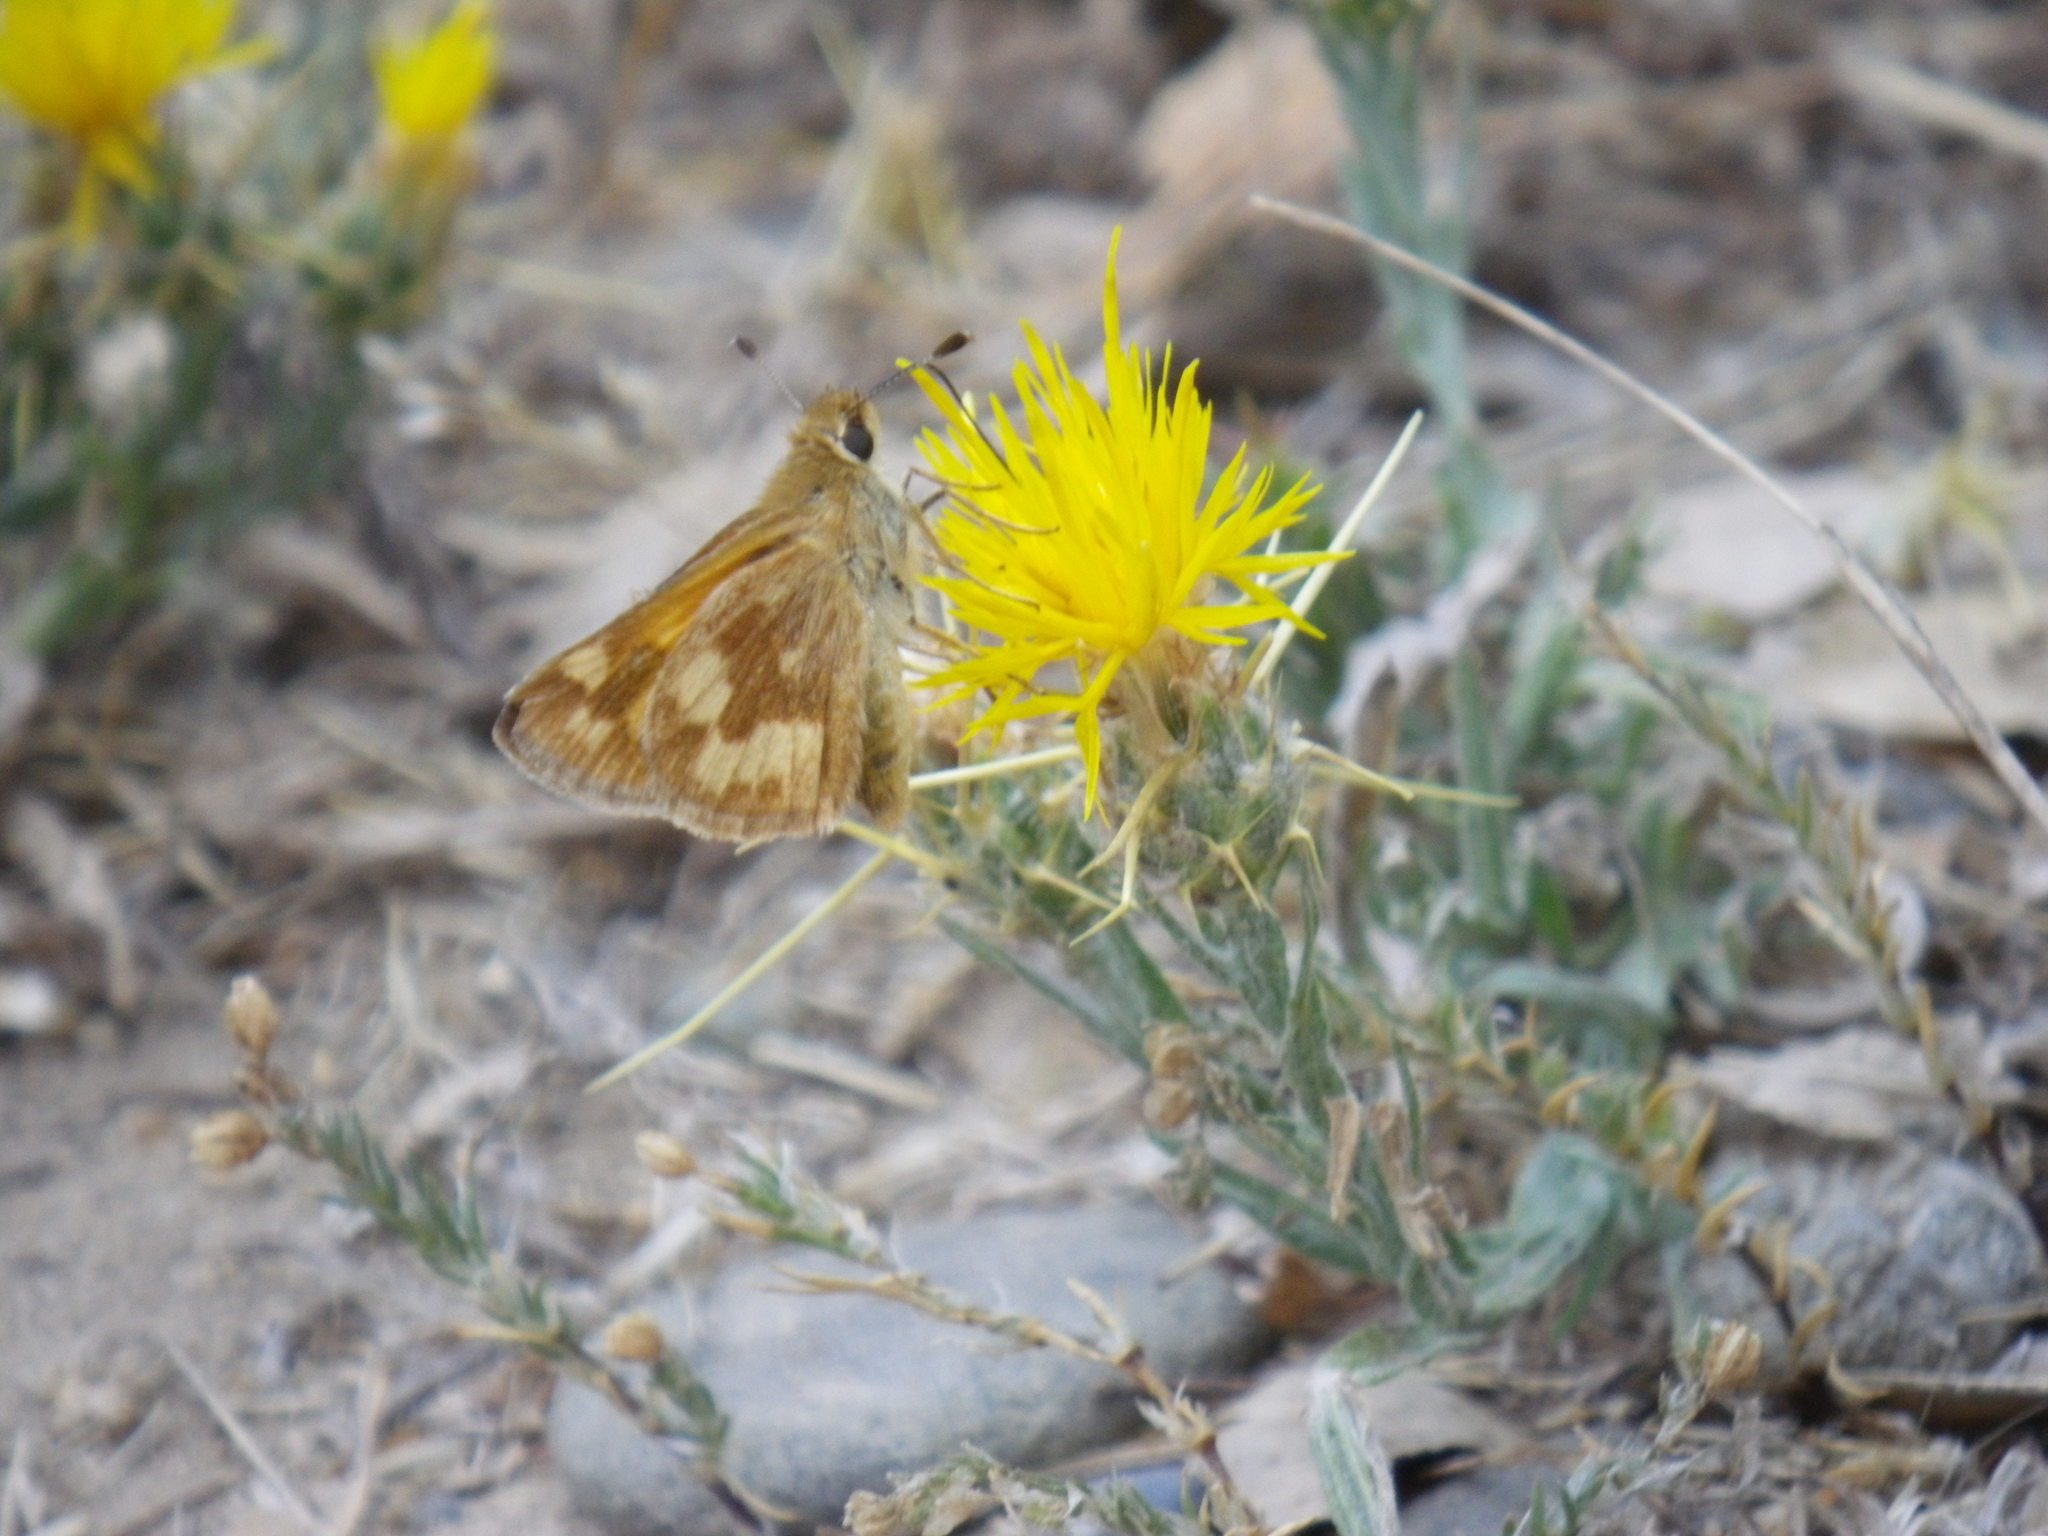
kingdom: Animalia
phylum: Arthropoda
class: Insecta
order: Lepidoptera
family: Hesperiidae
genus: Ochlodes
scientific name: Ochlodes sylvanoides
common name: Woodland skipper
